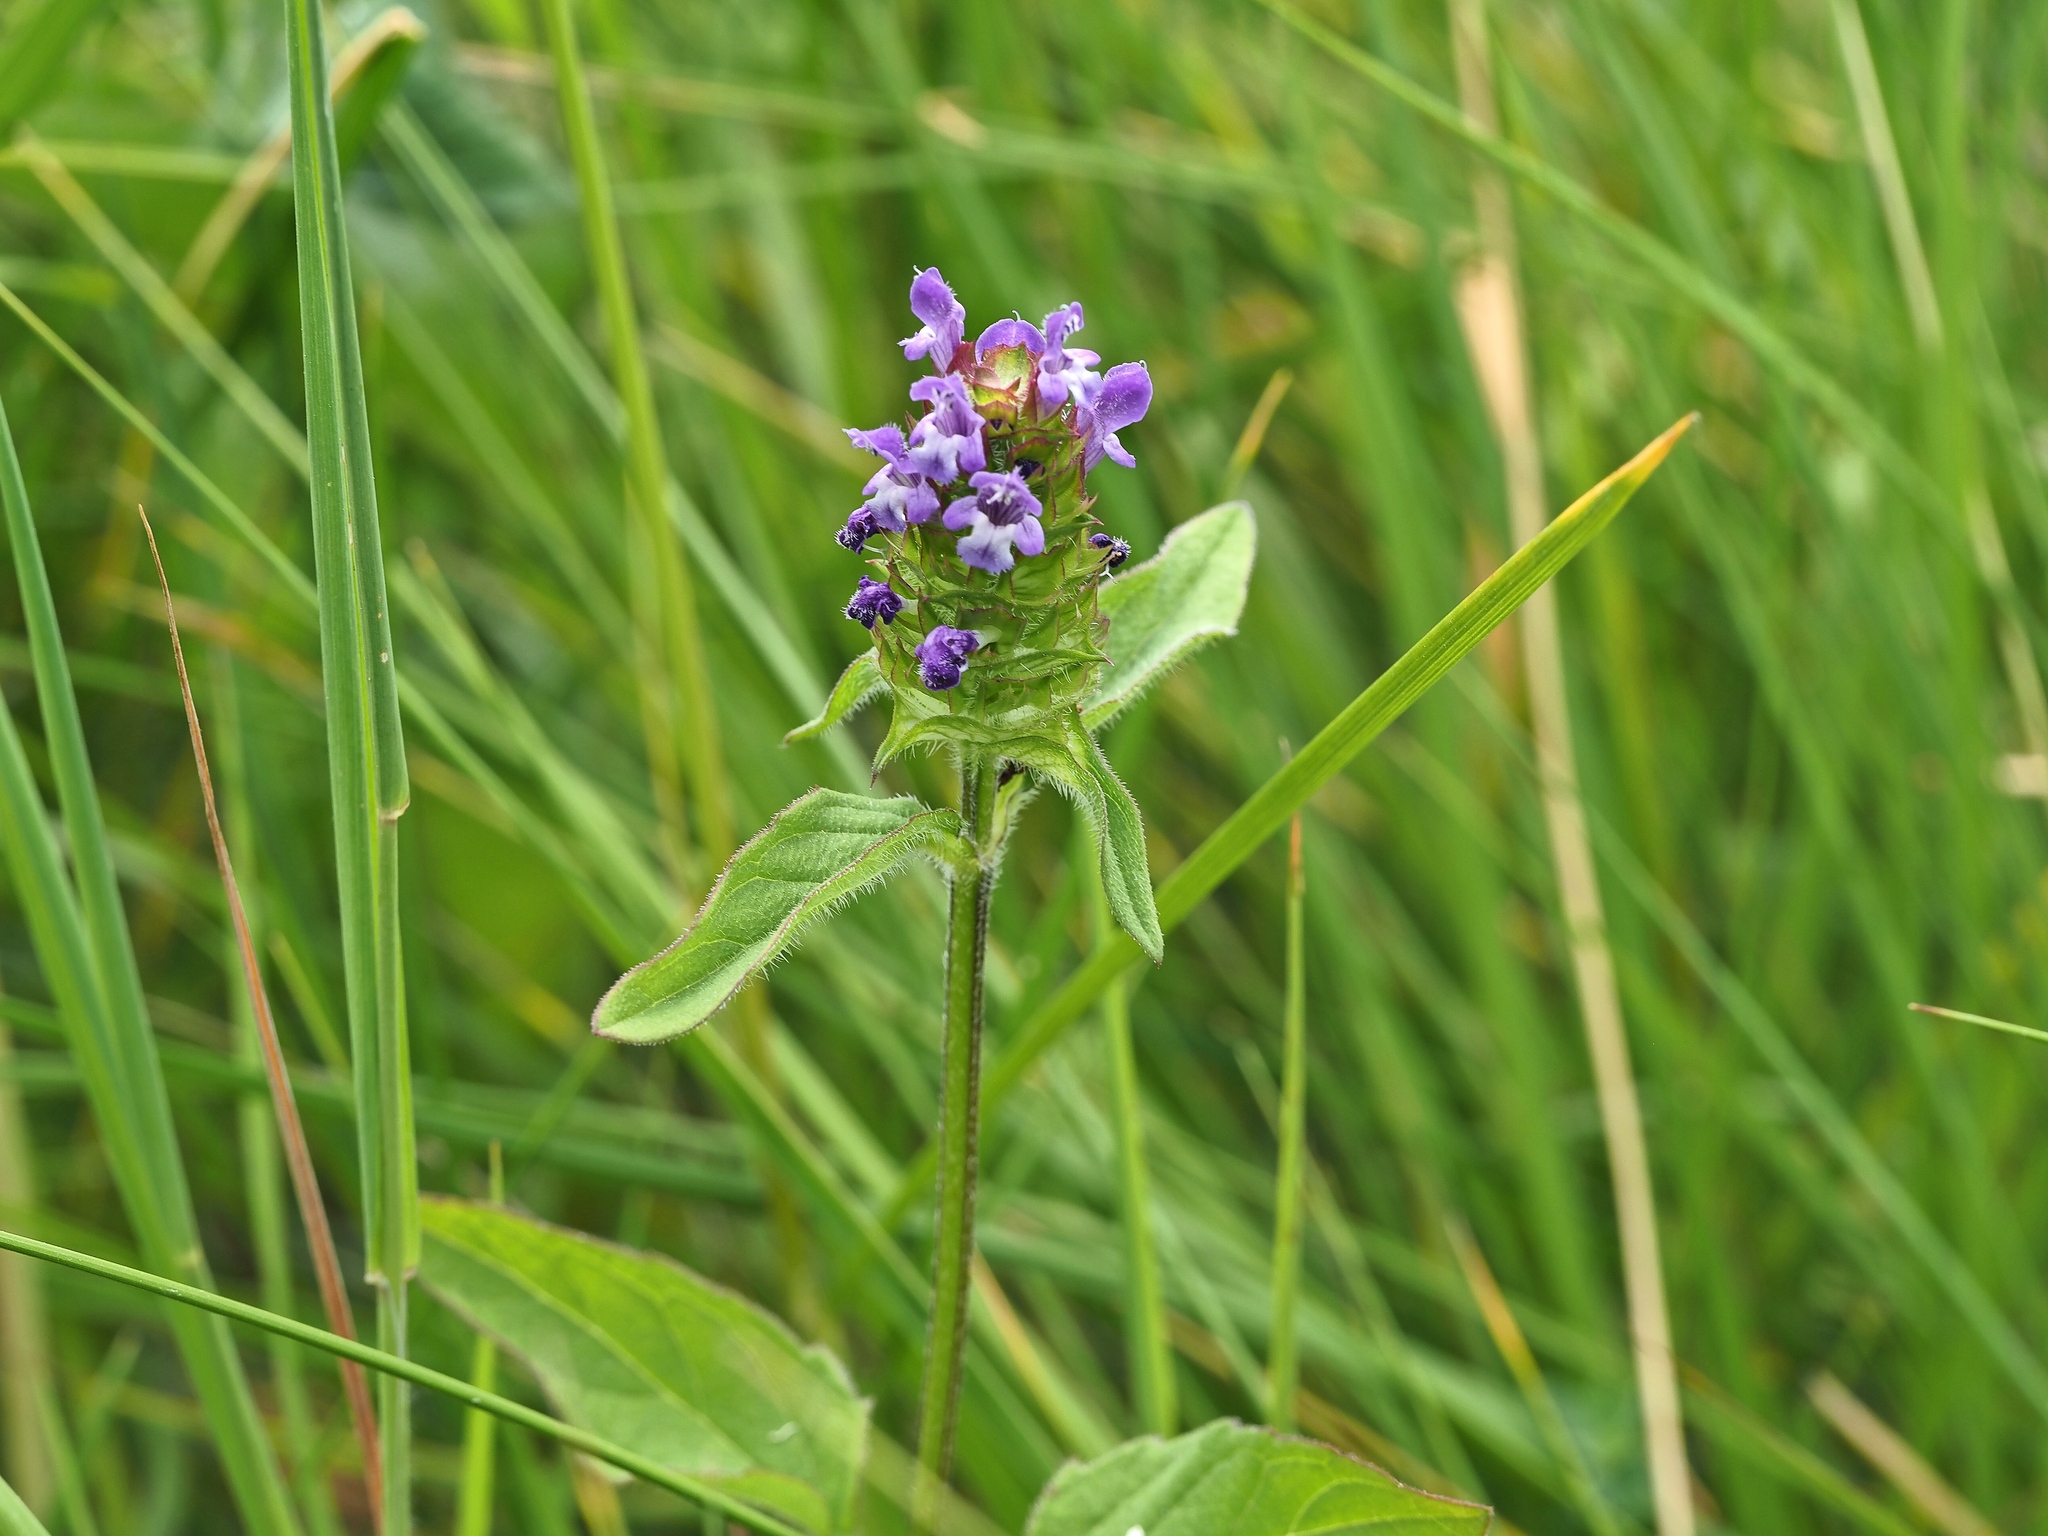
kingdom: Plantae
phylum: Tracheophyta
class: Magnoliopsida
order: Lamiales
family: Lamiaceae
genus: Prunella
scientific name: Prunella vulgaris
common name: Heal-all
